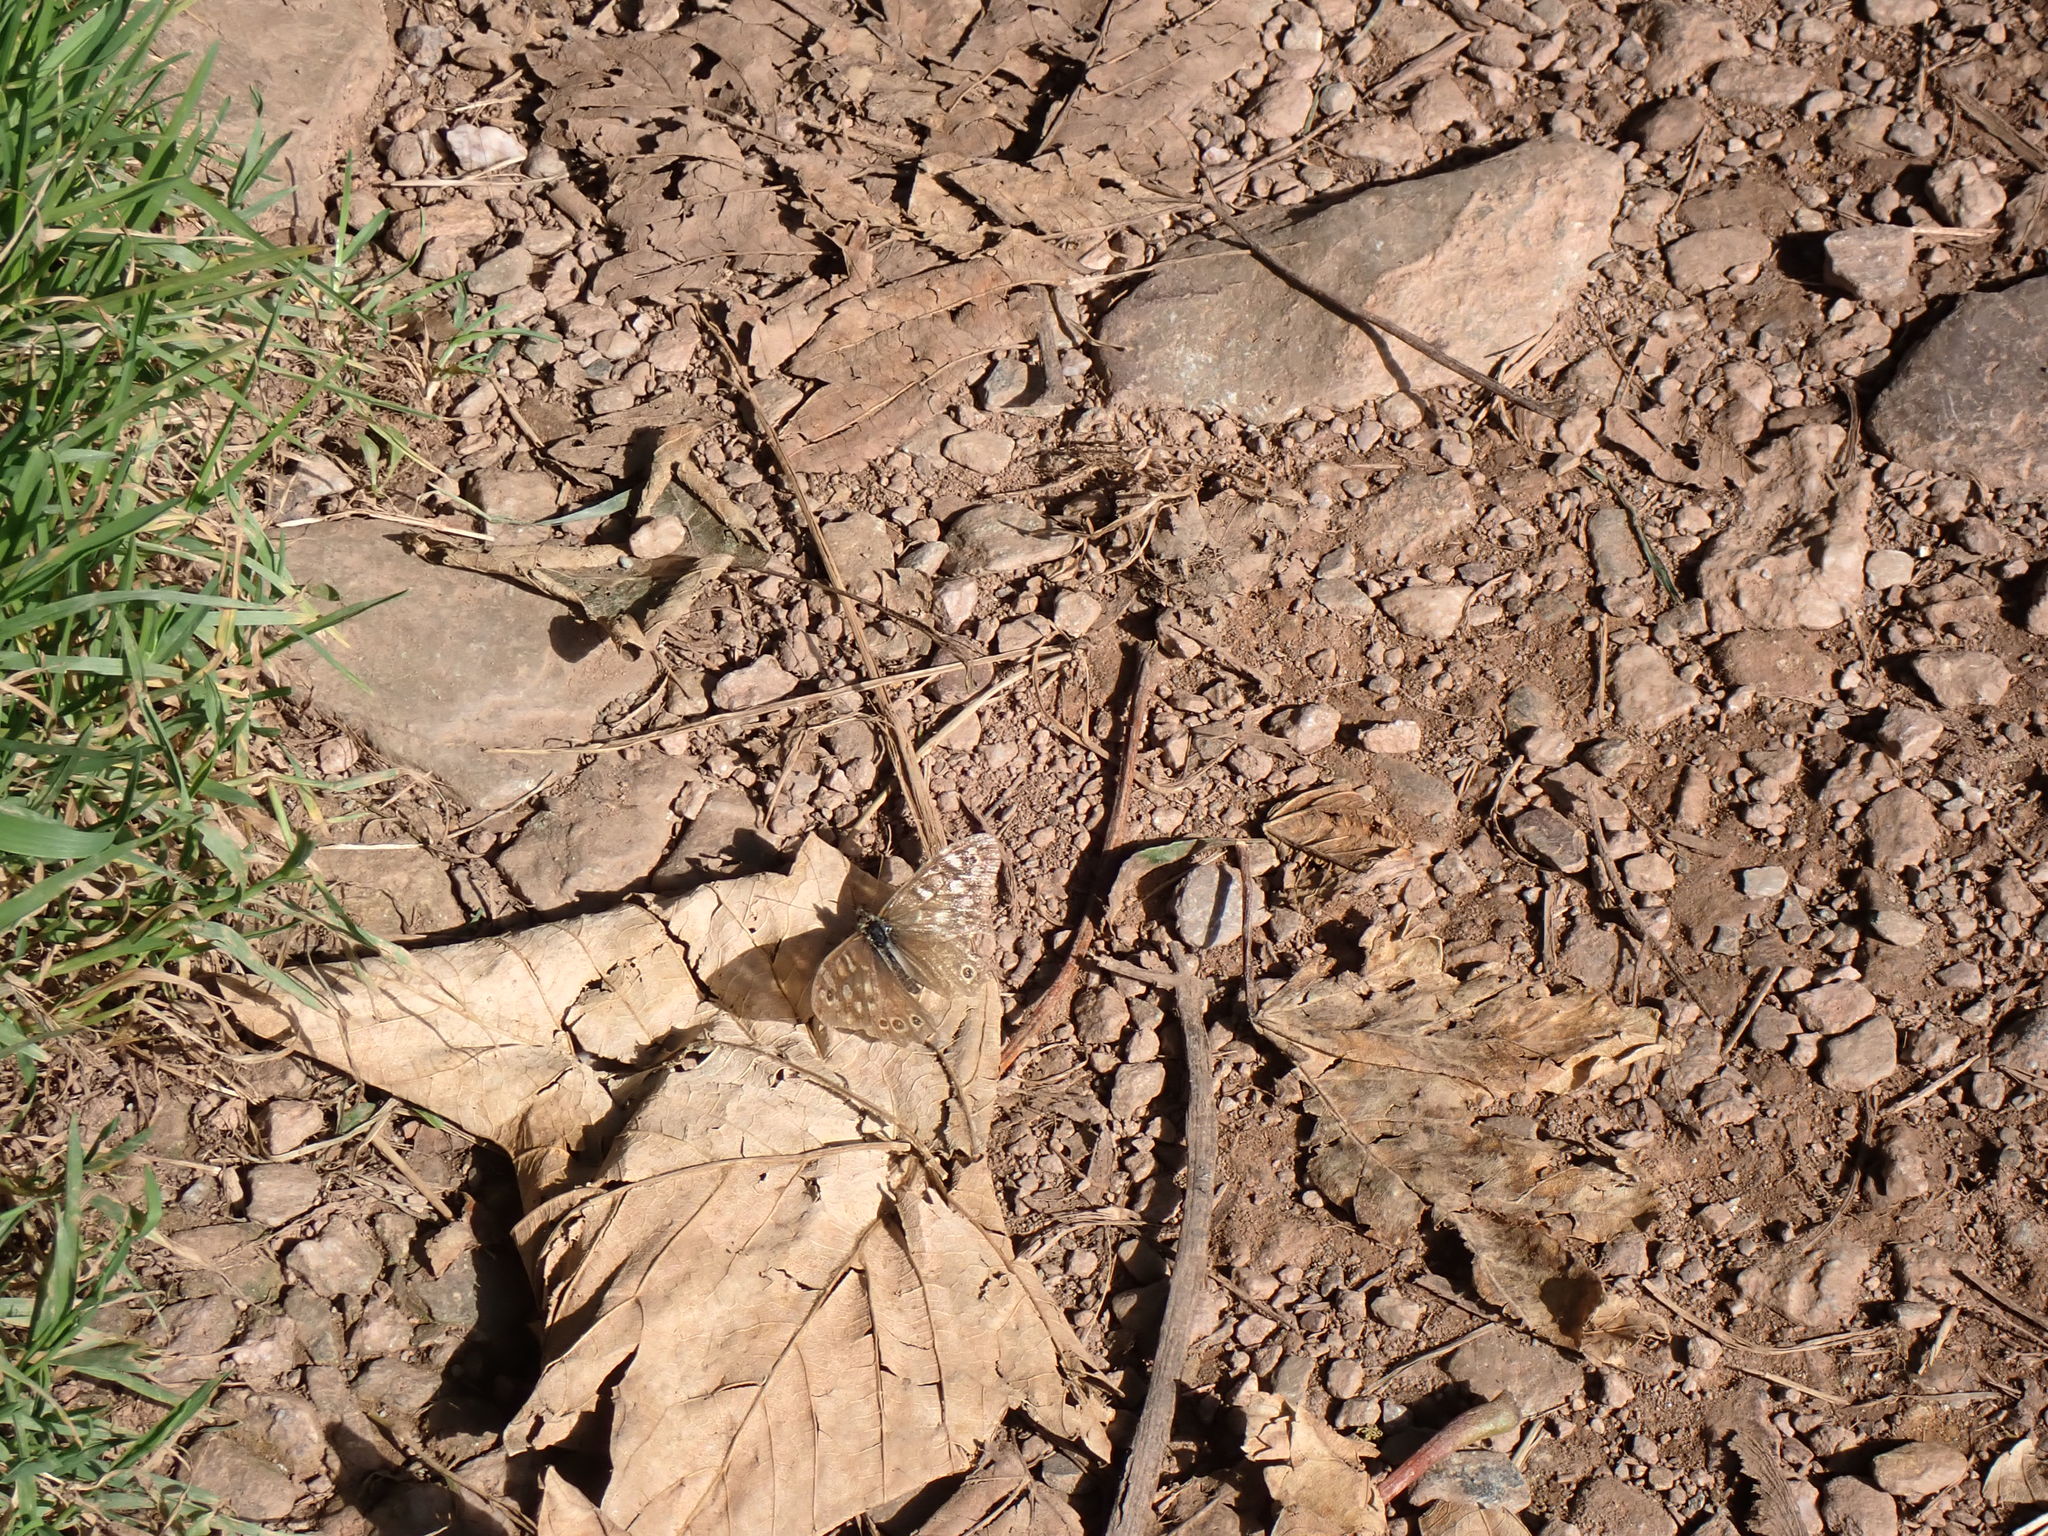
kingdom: Animalia
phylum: Arthropoda
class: Insecta
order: Lepidoptera
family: Nymphalidae
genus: Pararge
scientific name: Pararge aegeria
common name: Speckled wood
